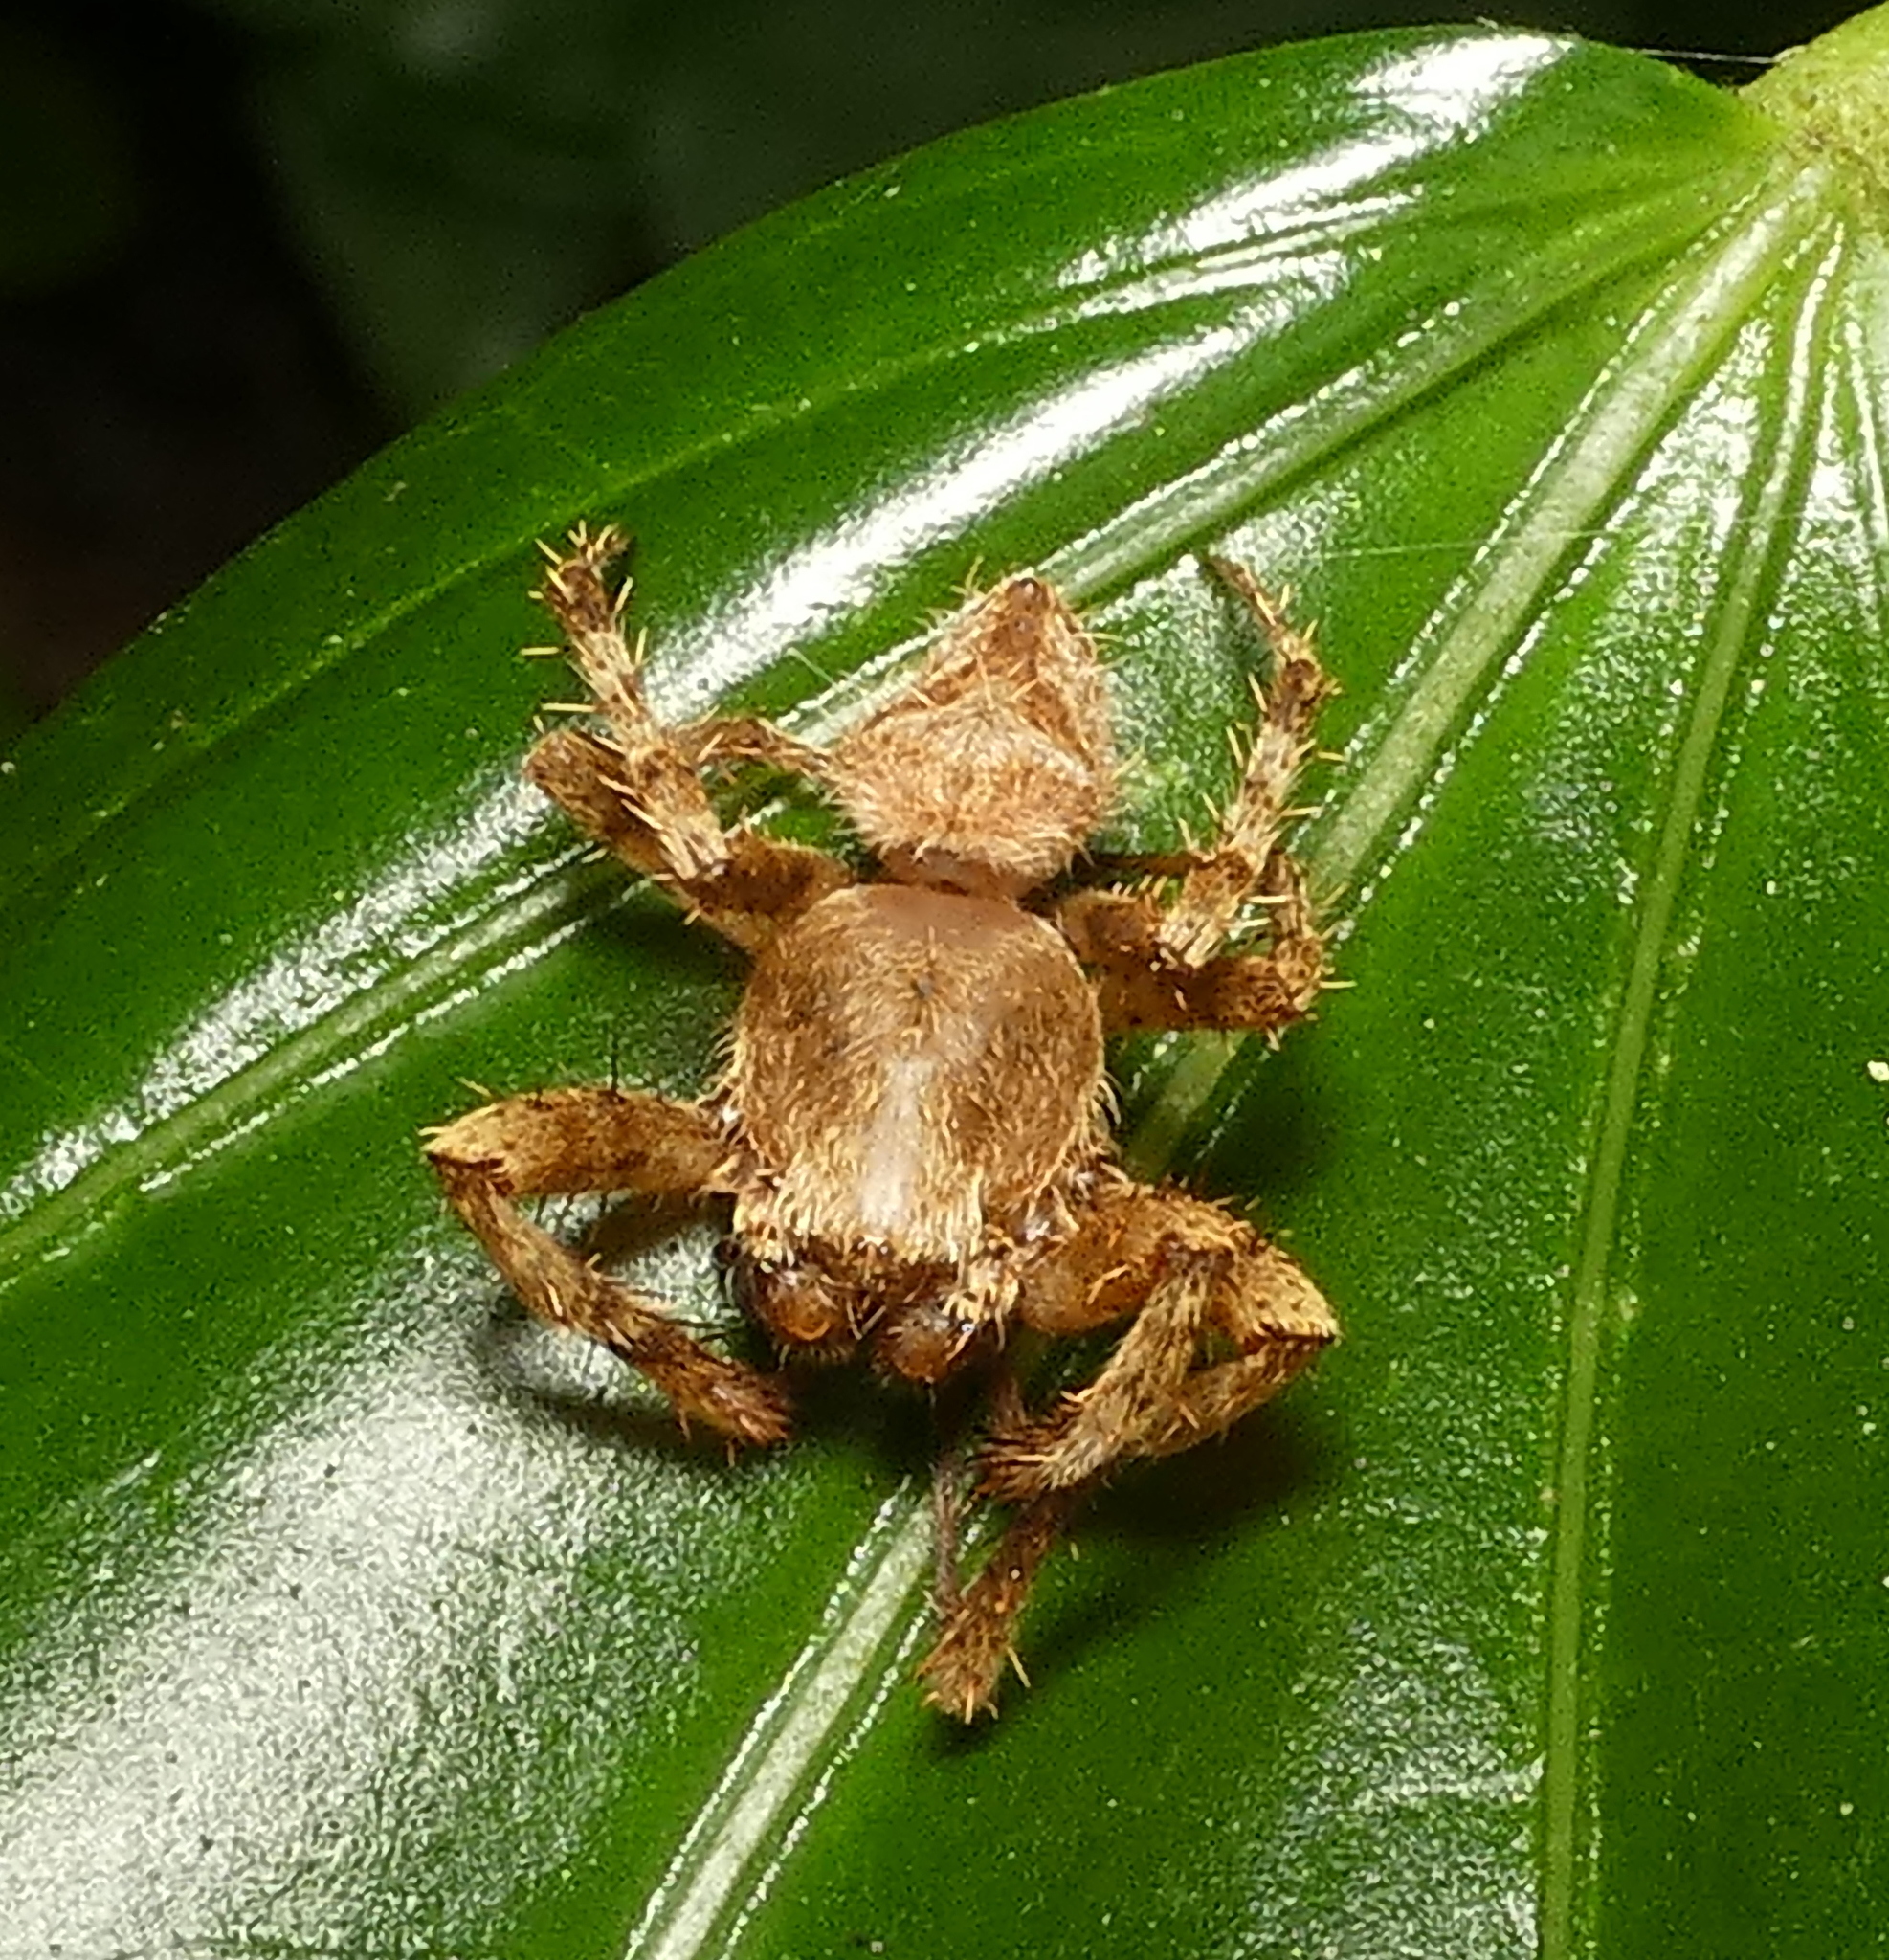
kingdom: Animalia
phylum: Arthropoda
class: Arachnida
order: Araneae
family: Araneidae
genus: Eriophora
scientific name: Eriophora edax
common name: Orb weavers
